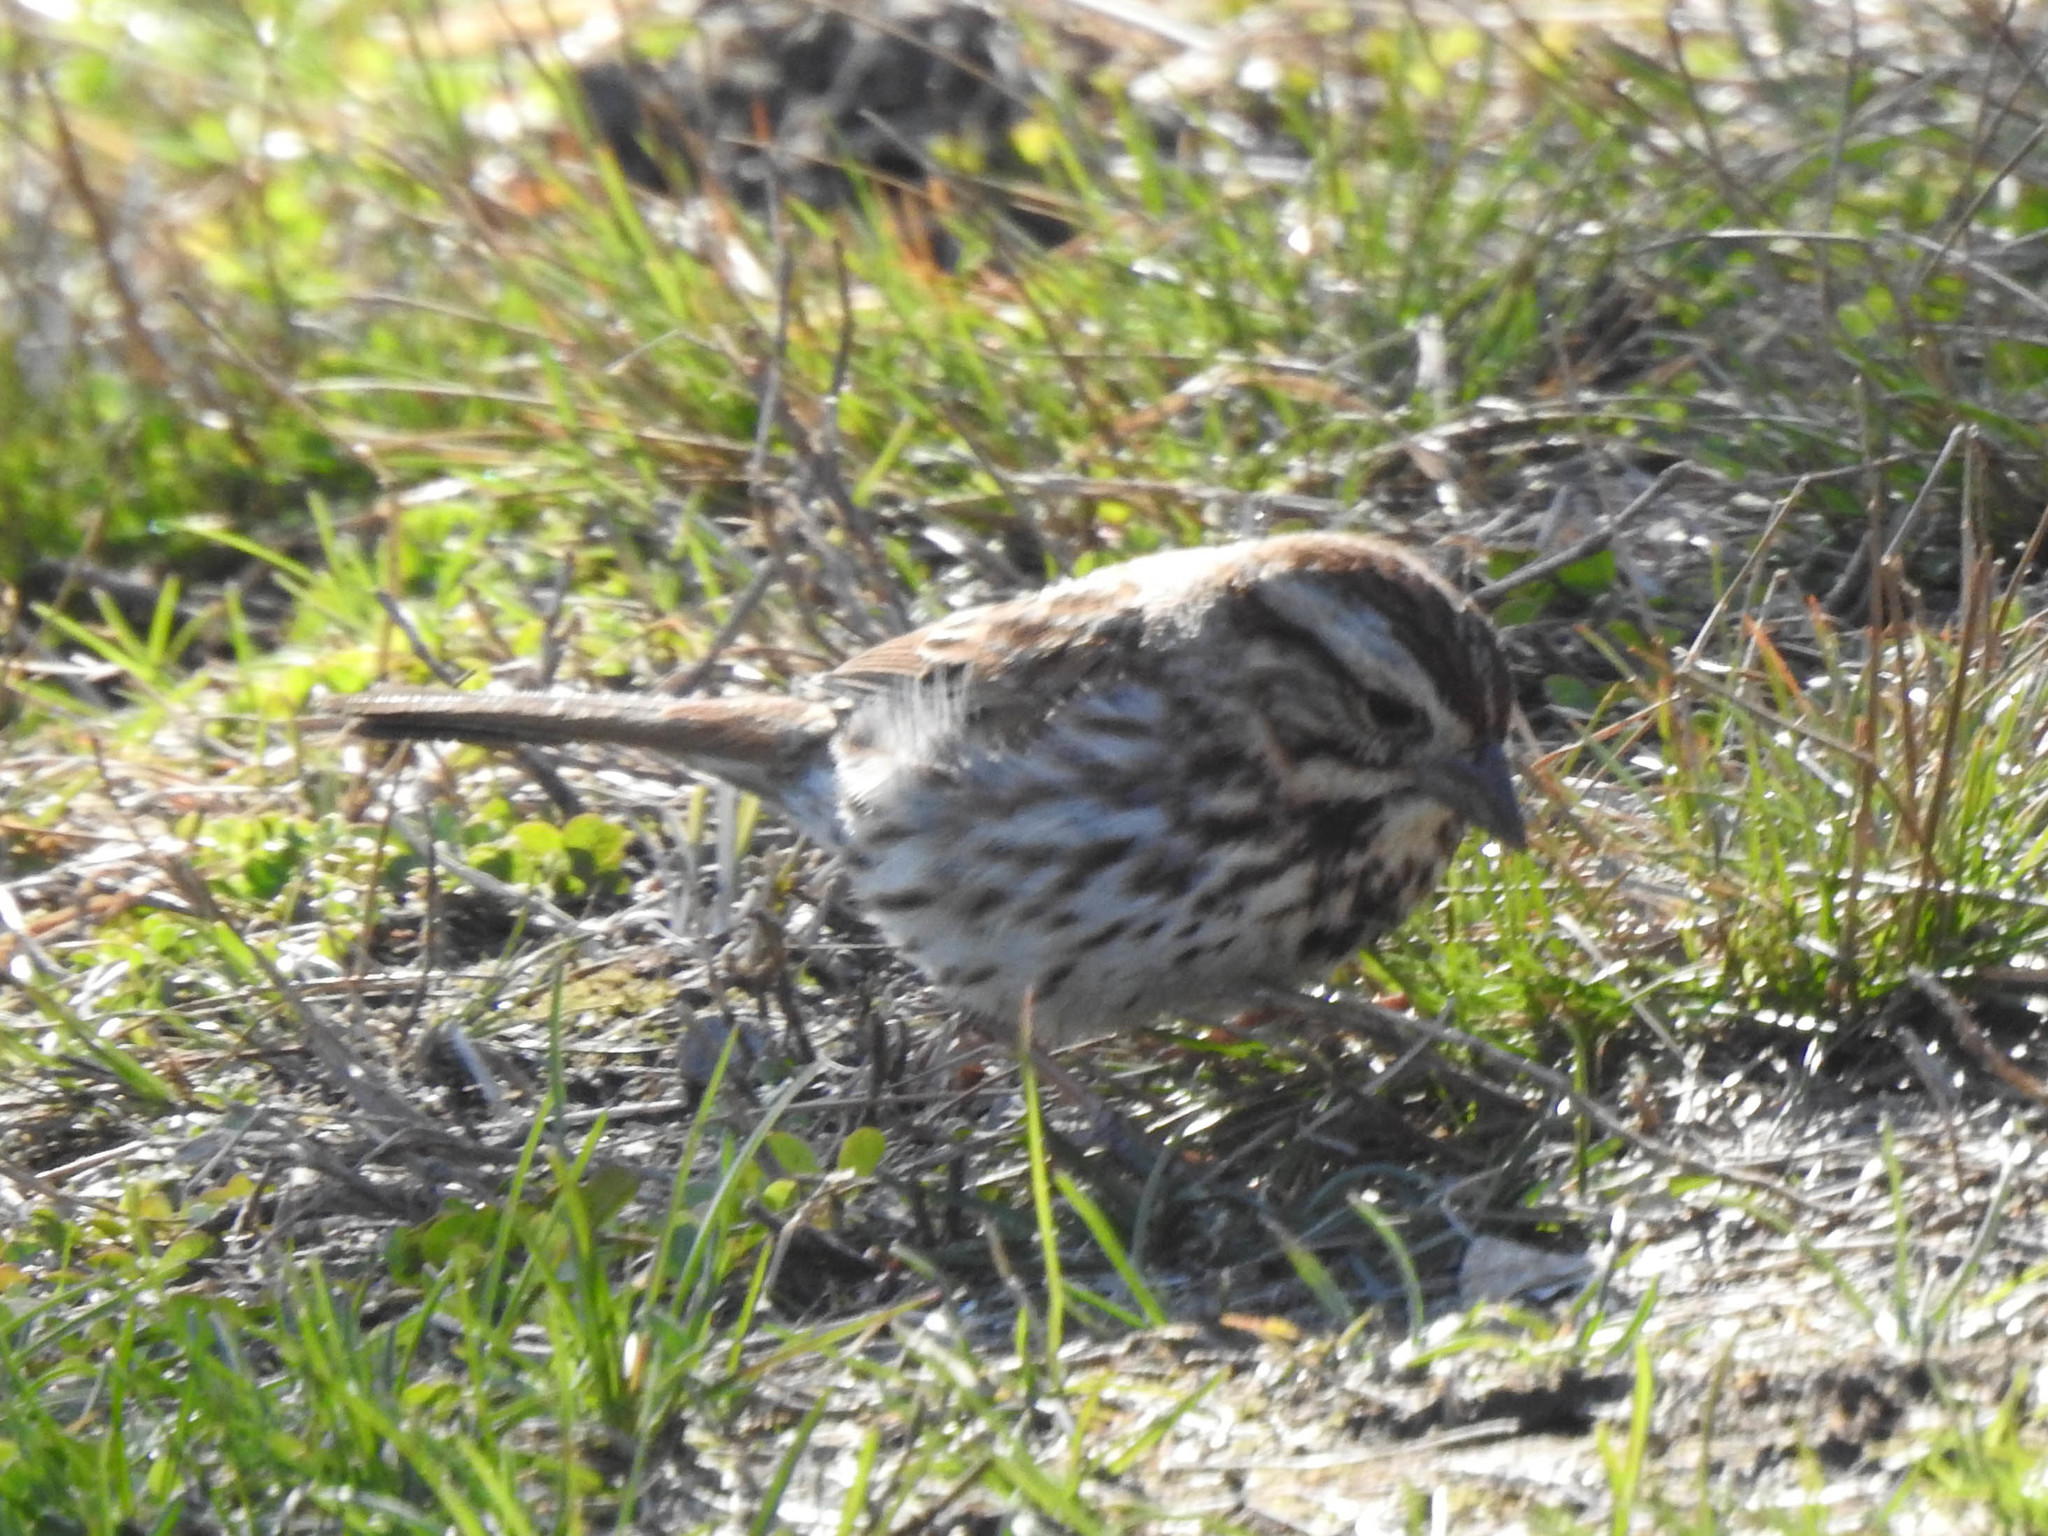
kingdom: Animalia
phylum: Chordata
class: Aves
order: Passeriformes
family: Passerellidae
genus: Melospiza
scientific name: Melospiza melodia
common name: Song sparrow
